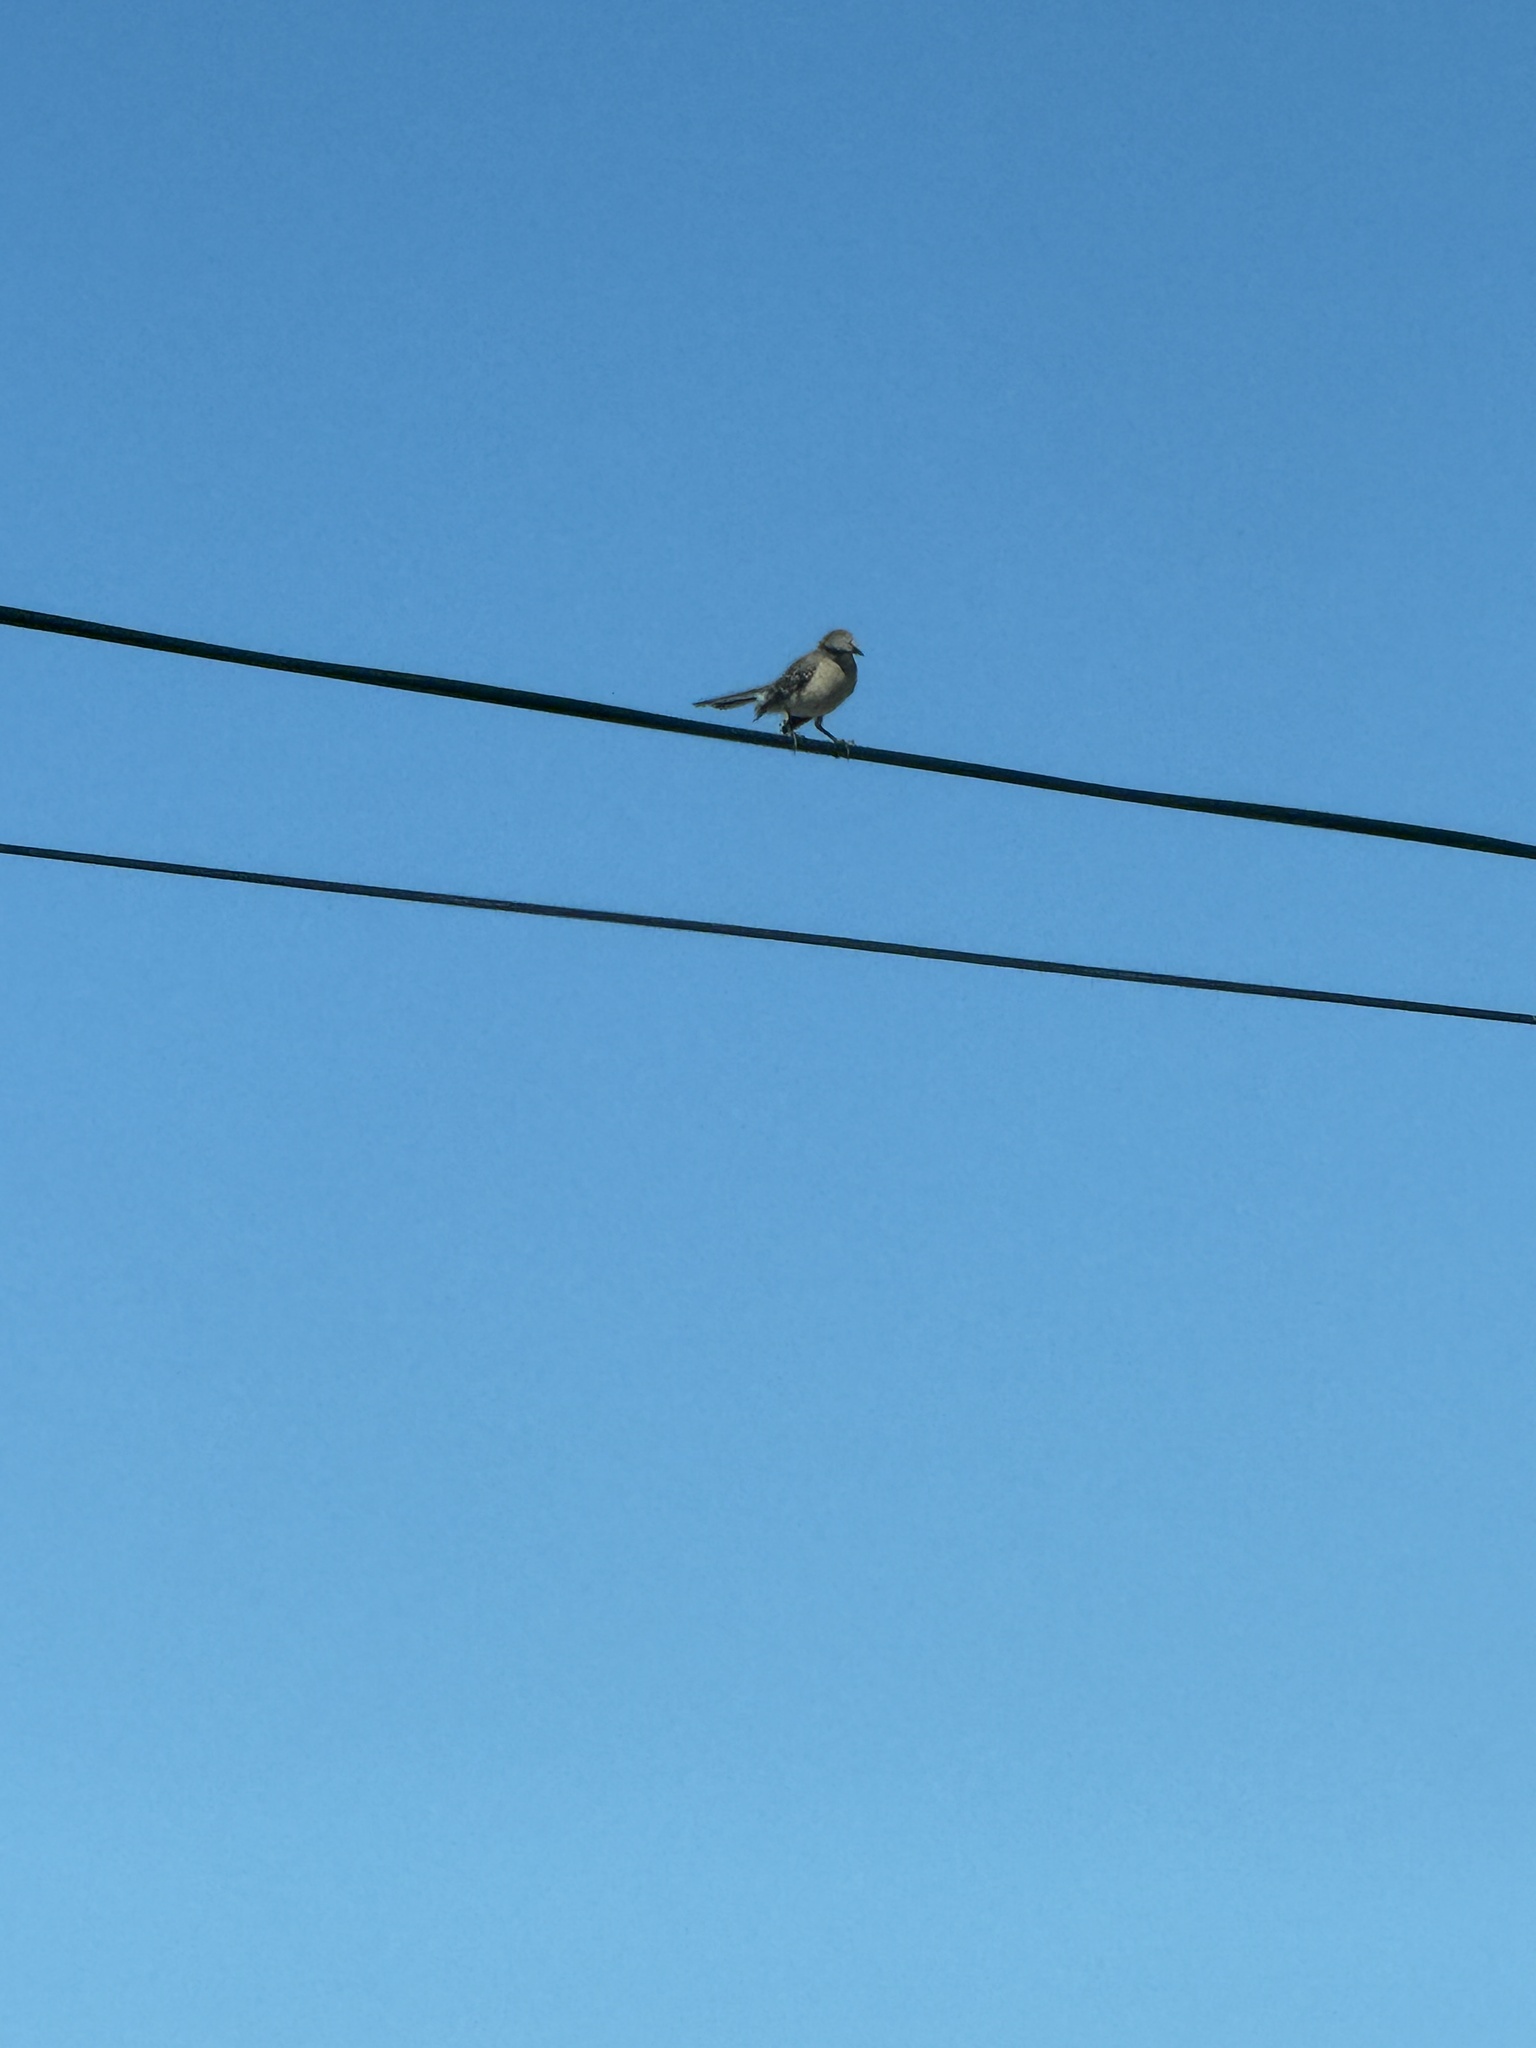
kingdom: Animalia
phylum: Chordata
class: Aves
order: Passeriformes
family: Mimidae
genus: Mimus
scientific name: Mimus polyglottos
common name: Northern mockingbird
